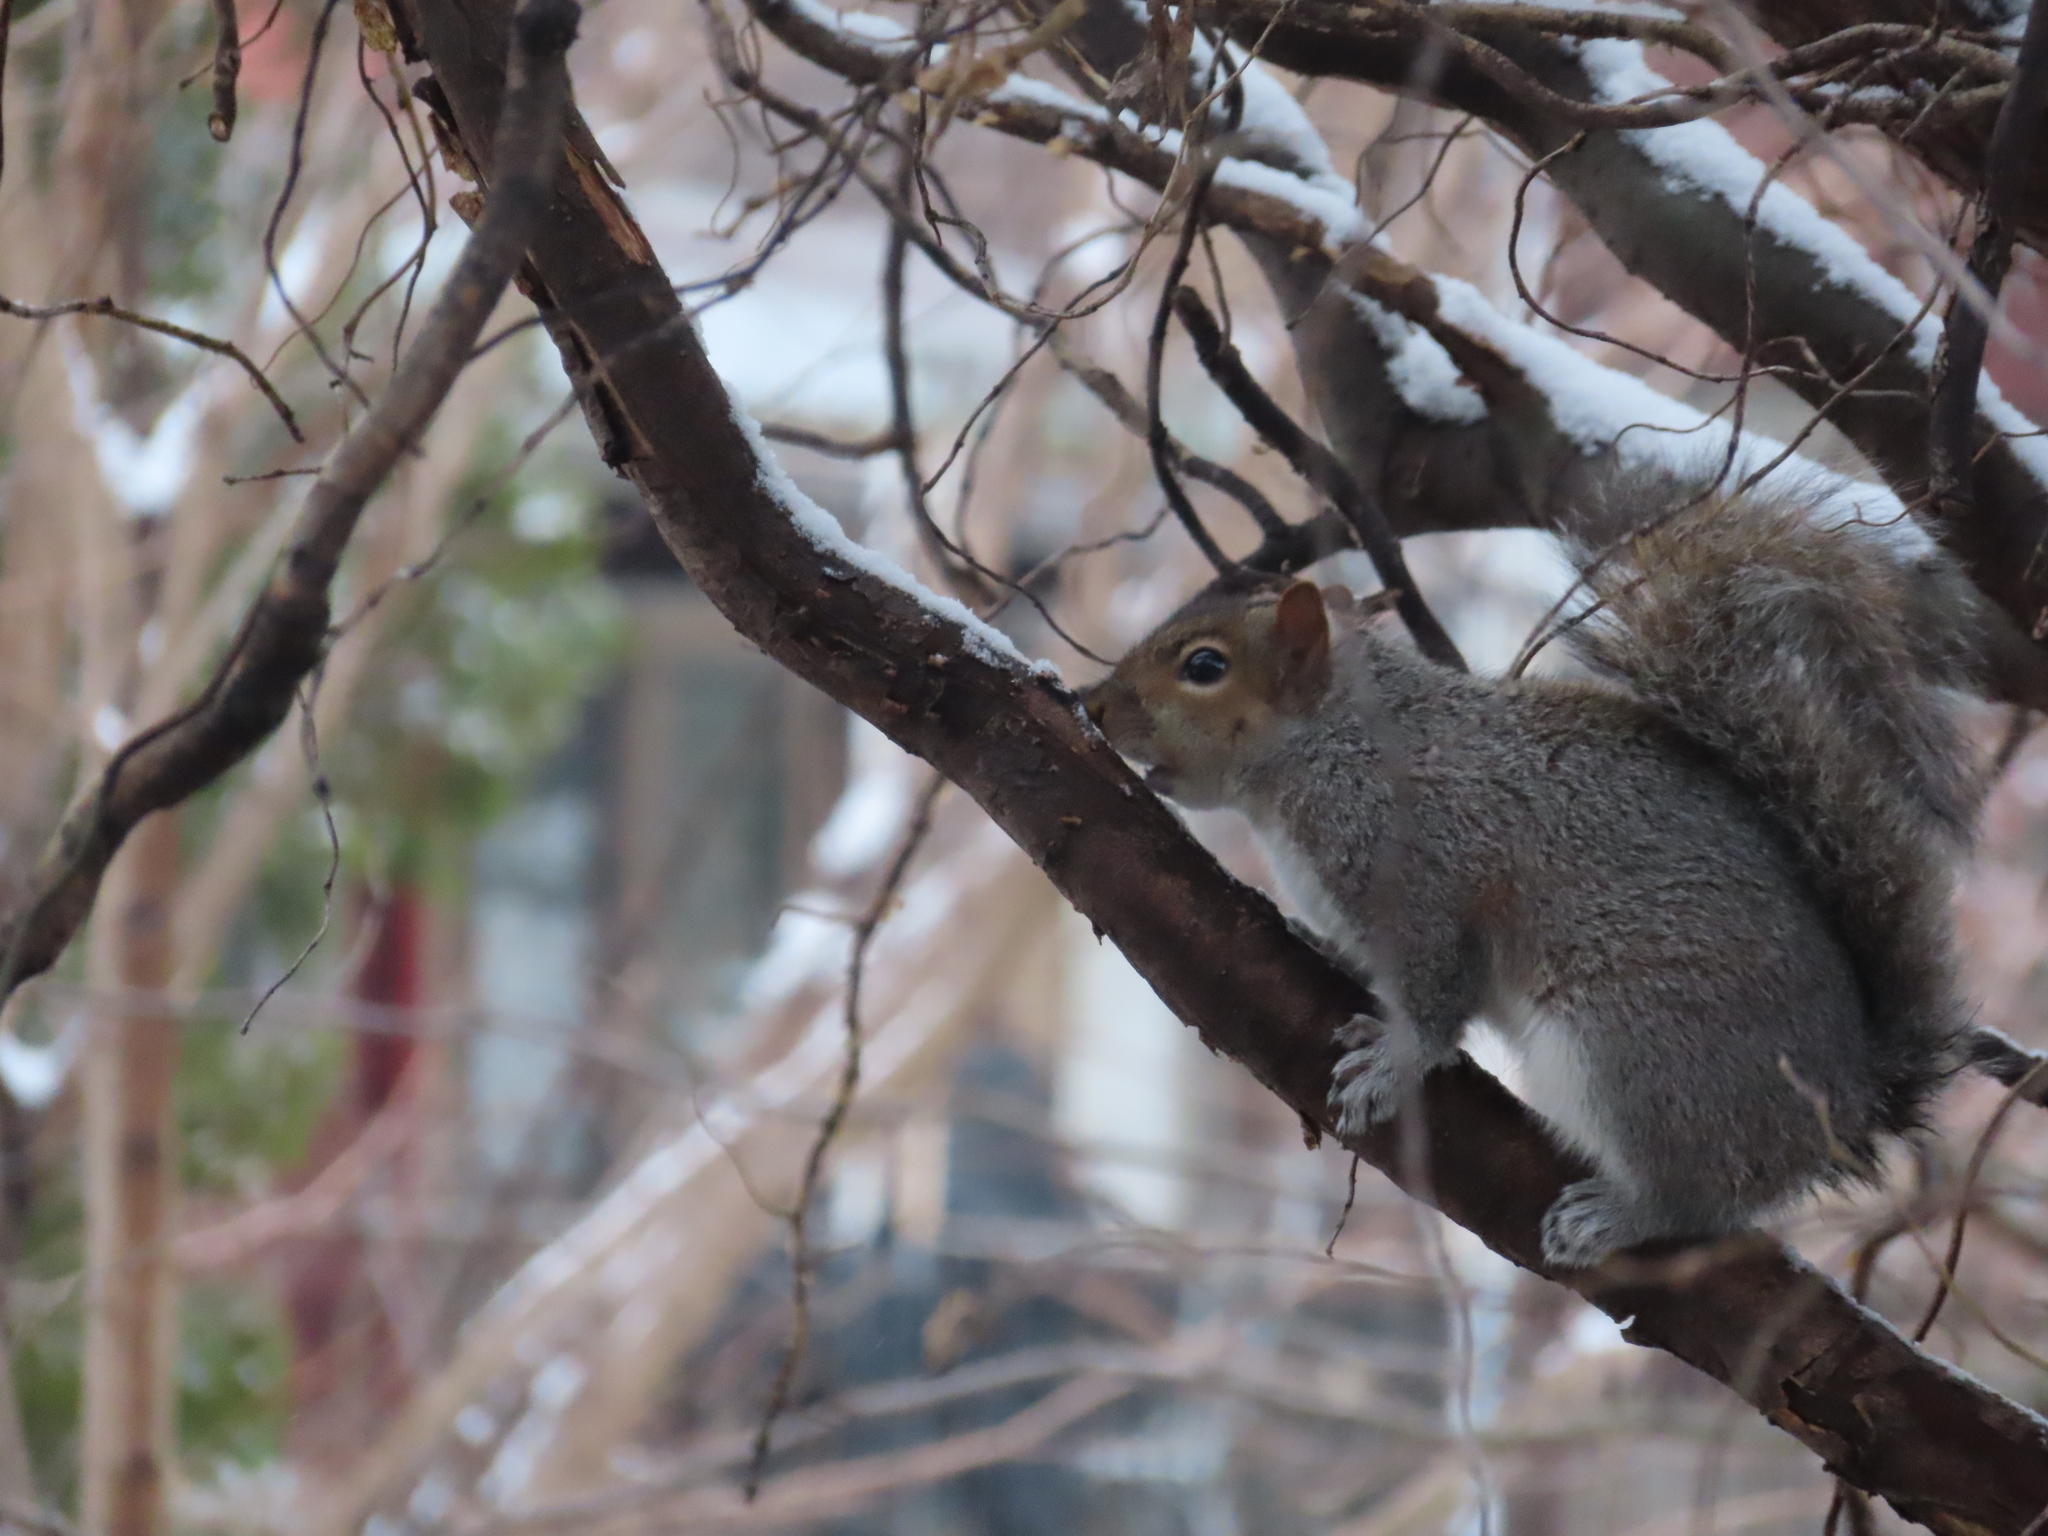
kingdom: Animalia
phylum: Chordata
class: Mammalia
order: Rodentia
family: Sciuridae
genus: Sciurus
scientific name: Sciurus carolinensis
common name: Eastern gray squirrel
